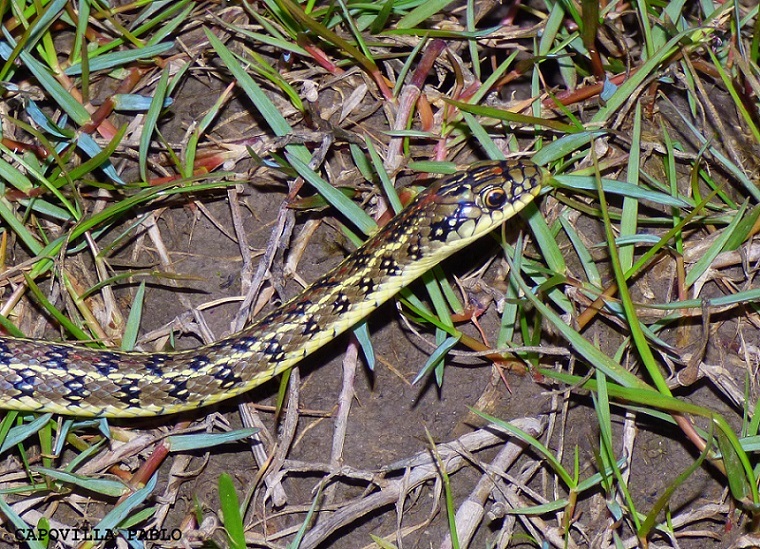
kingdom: Animalia
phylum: Chordata
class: Squamata
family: Colubridae
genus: Lygophis
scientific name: Lygophis anomalus
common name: English common name not available
